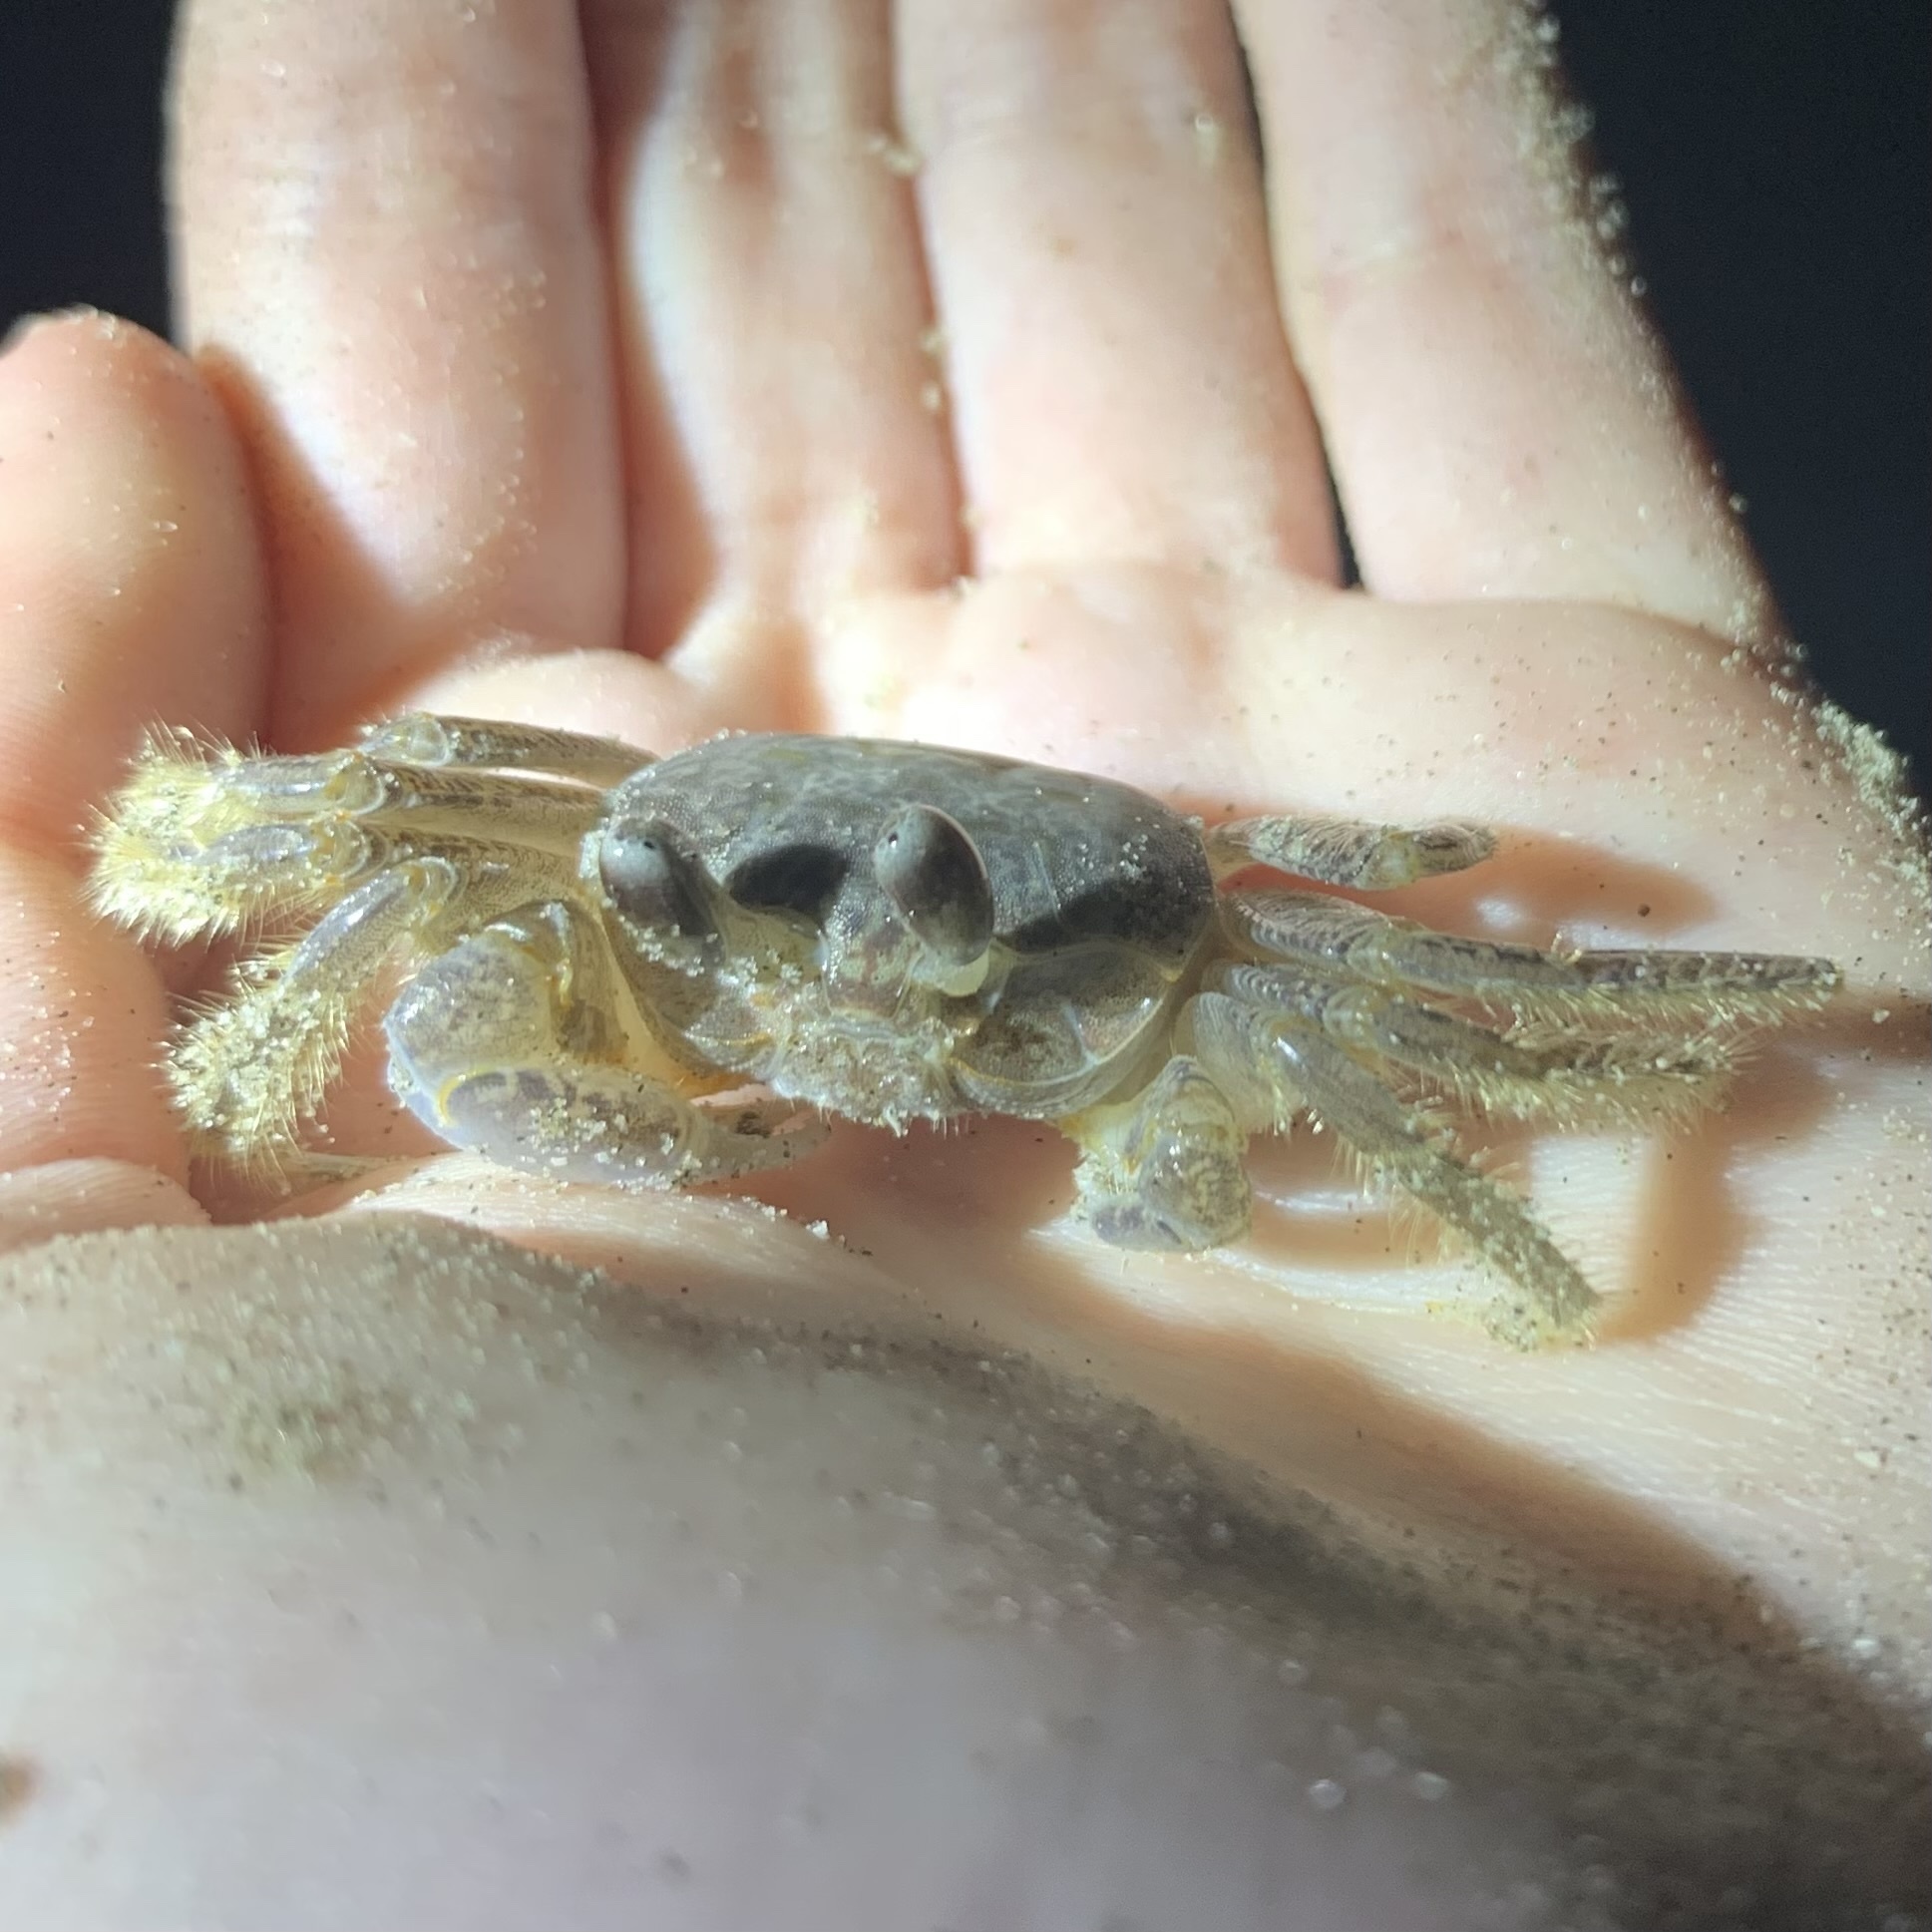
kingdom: Animalia
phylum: Arthropoda
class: Malacostraca
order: Decapoda
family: Ocypodidae
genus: Ocypode
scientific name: Ocypode quadrata
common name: Ghost crab
